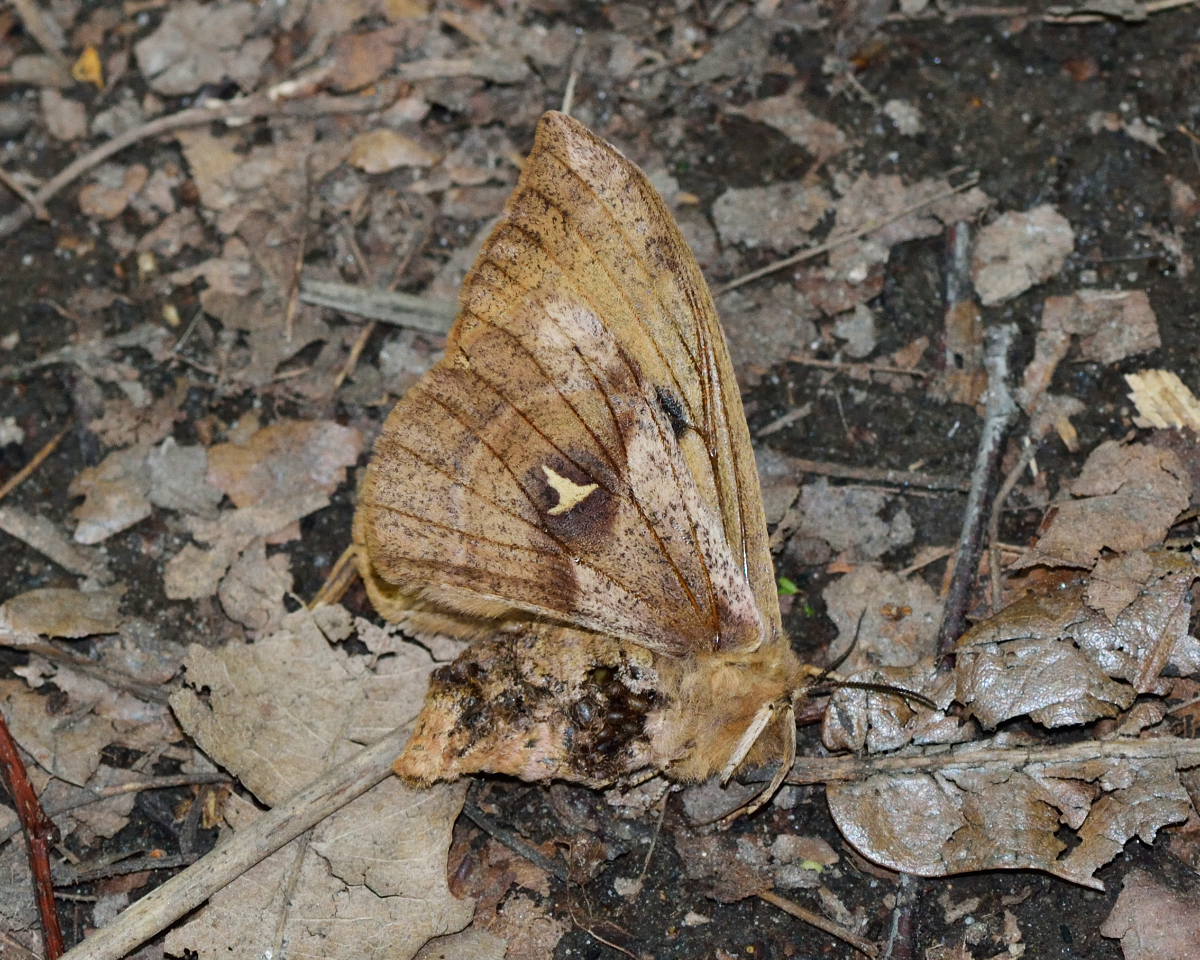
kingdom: Animalia
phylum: Arthropoda
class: Insecta
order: Lepidoptera
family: Saturniidae
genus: Aglia
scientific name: Aglia tau
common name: Tau emperor
